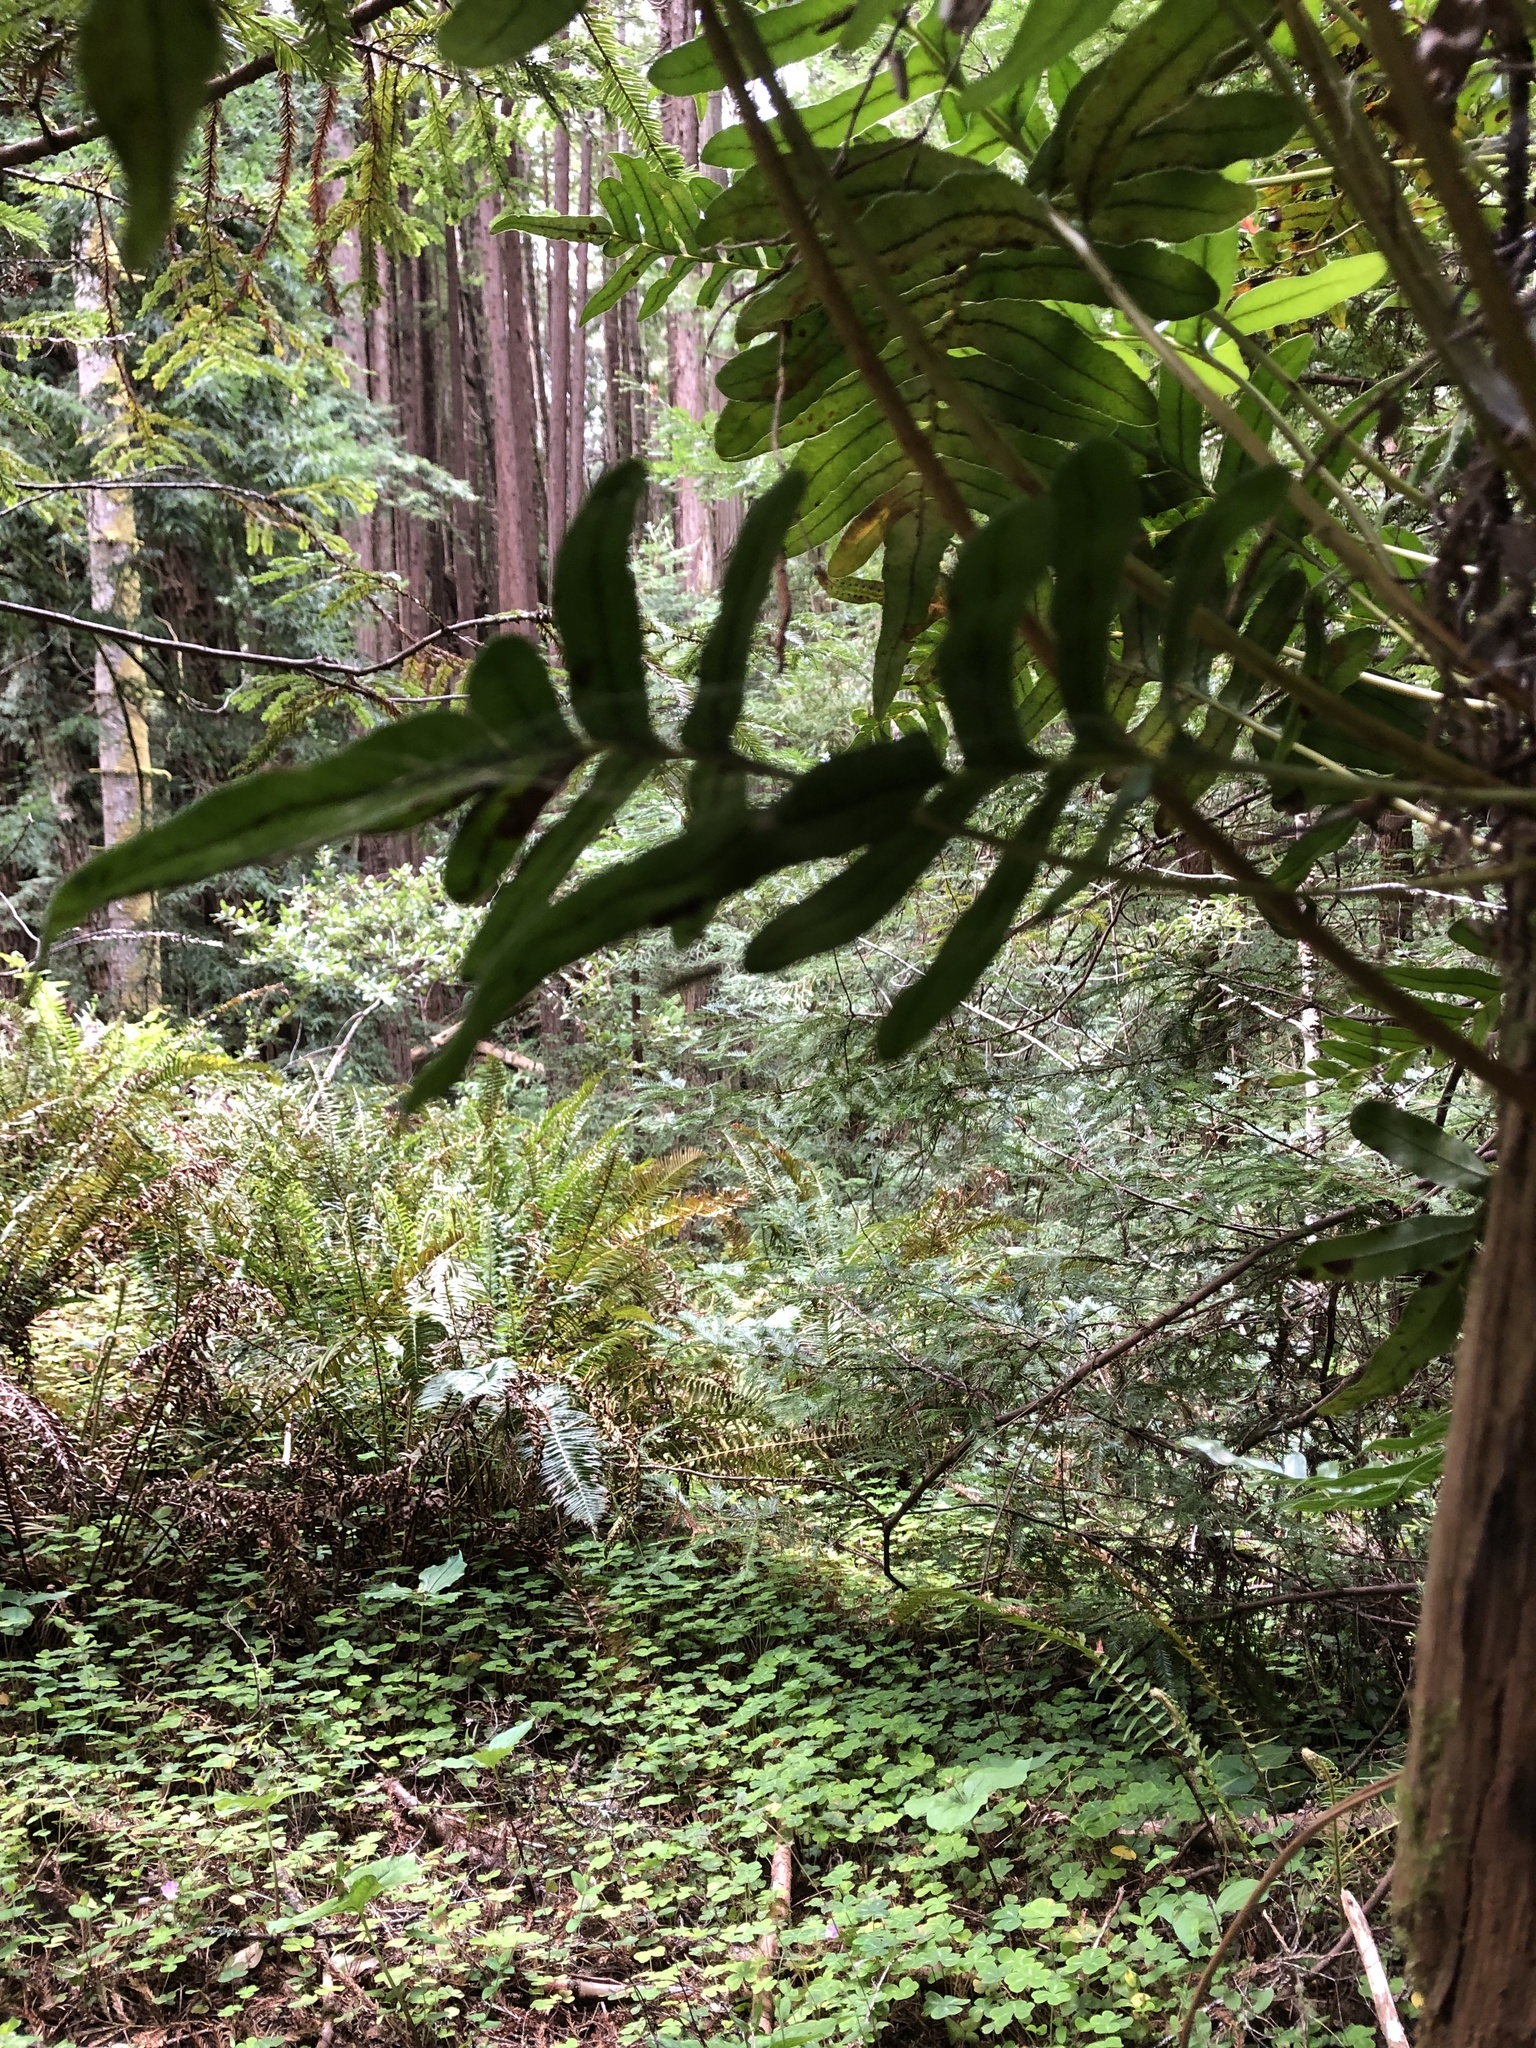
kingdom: Plantae
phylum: Tracheophyta
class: Polypodiopsida
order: Polypodiales
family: Polypodiaceae
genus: Polypodium
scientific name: Polypodium scouleri
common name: Scouler's polypody
